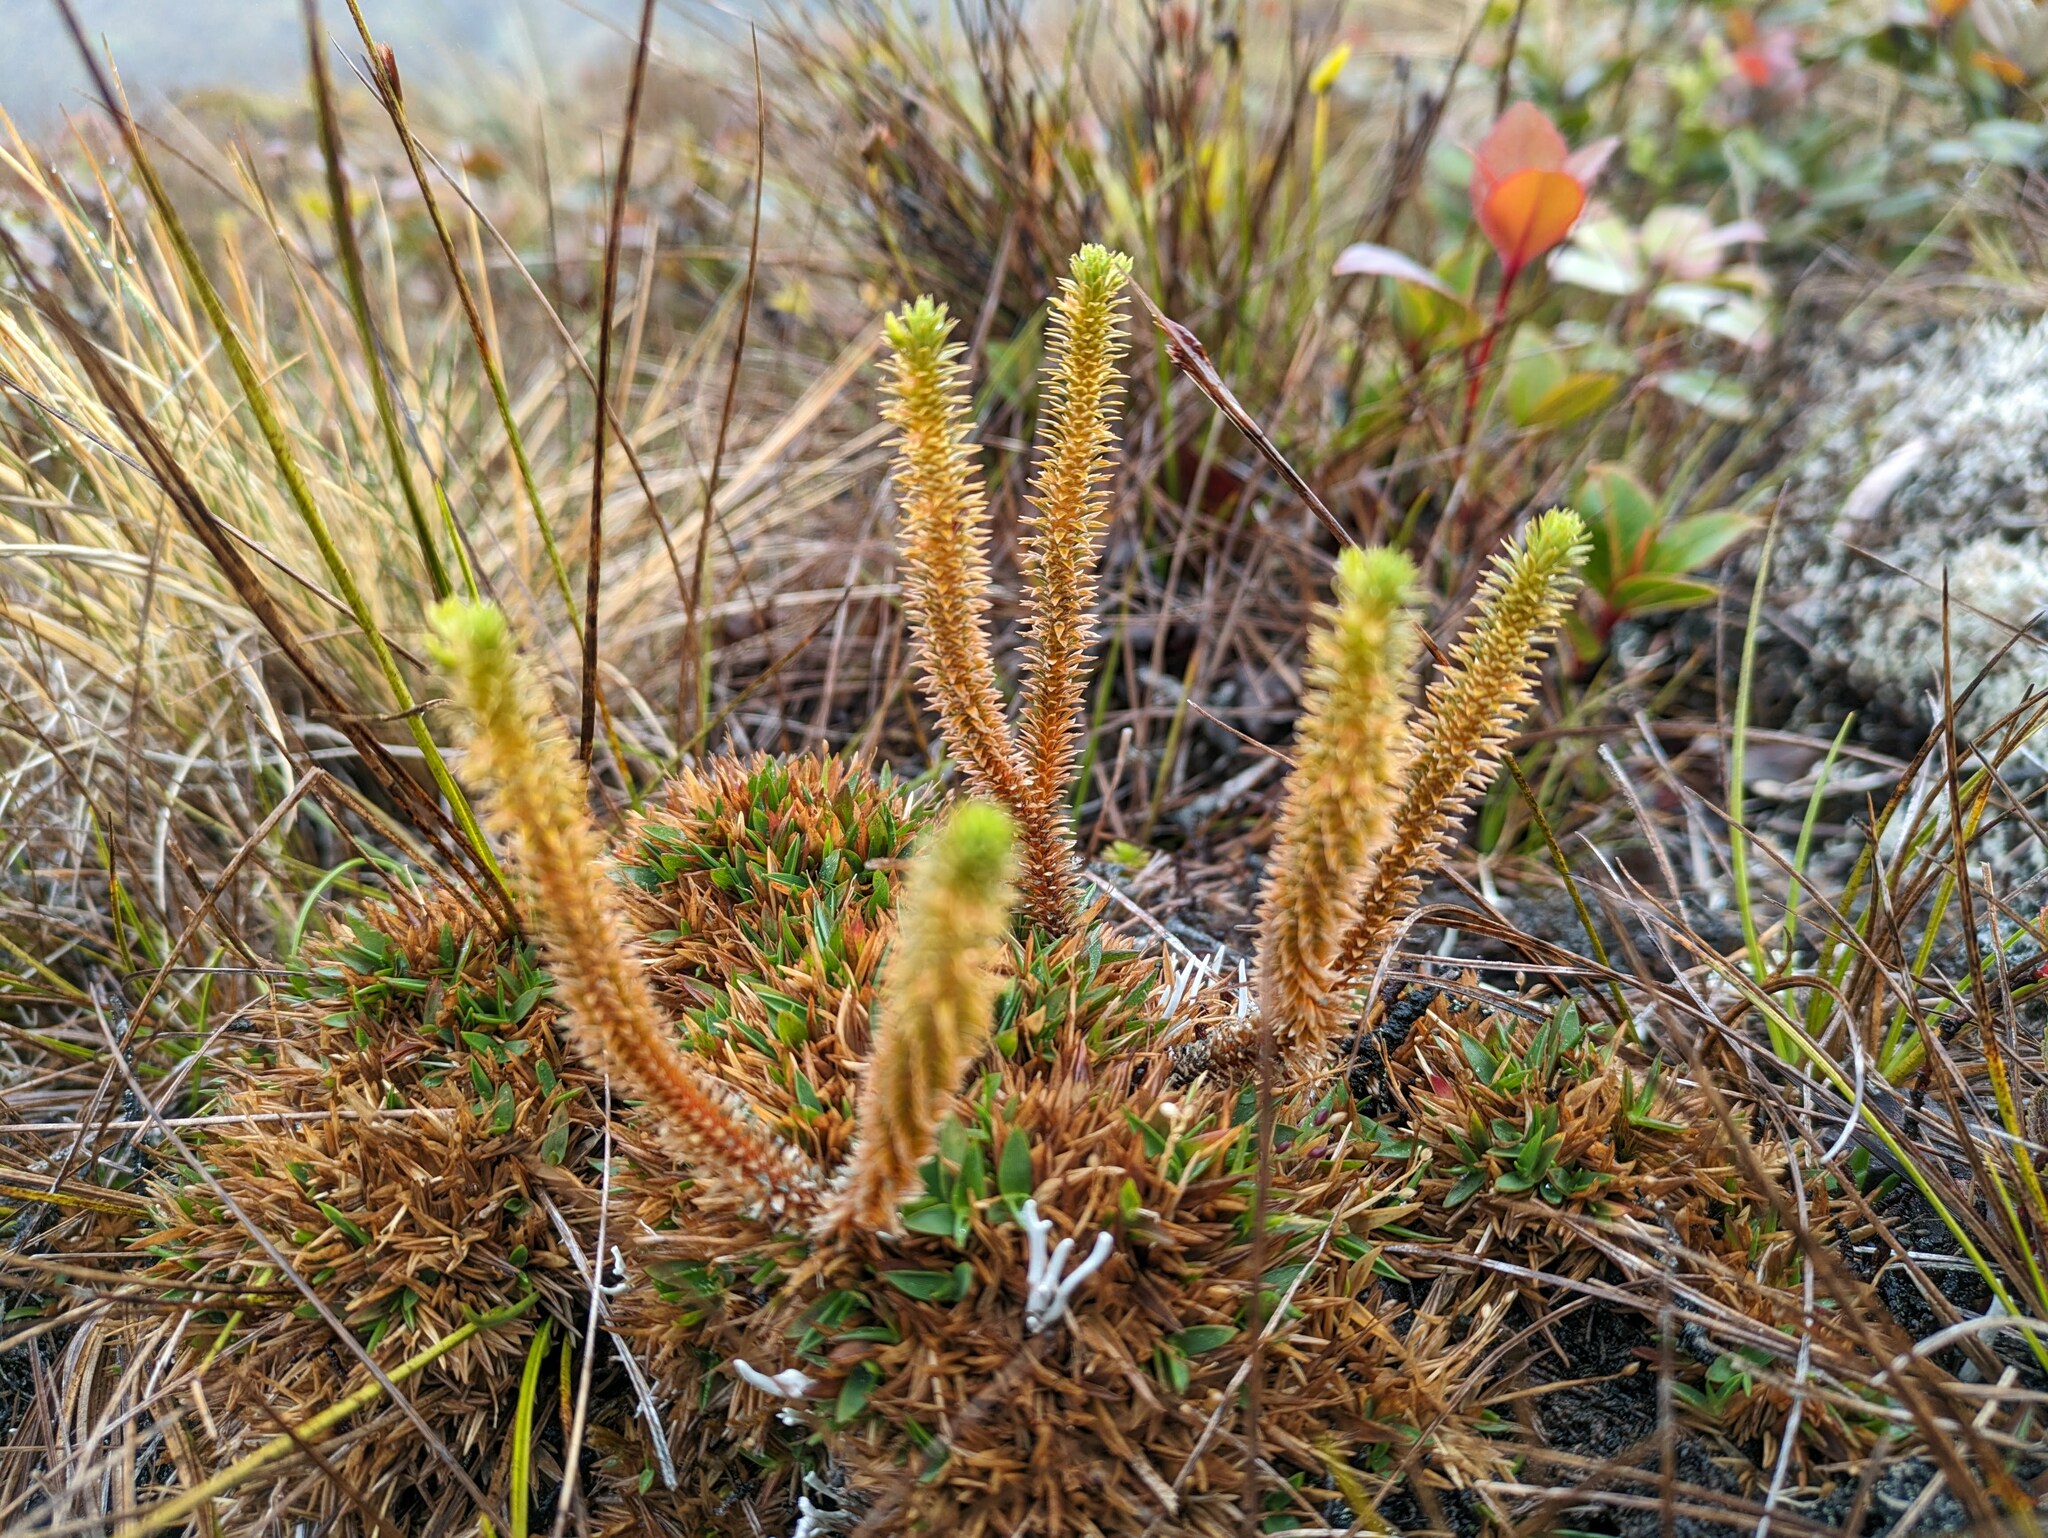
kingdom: Plantae
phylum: Tracheophyta
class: Lycopodiopsida
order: Lycopodiales
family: Lycopodiaceae
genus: Huperzia
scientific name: Huperzia erubescens
